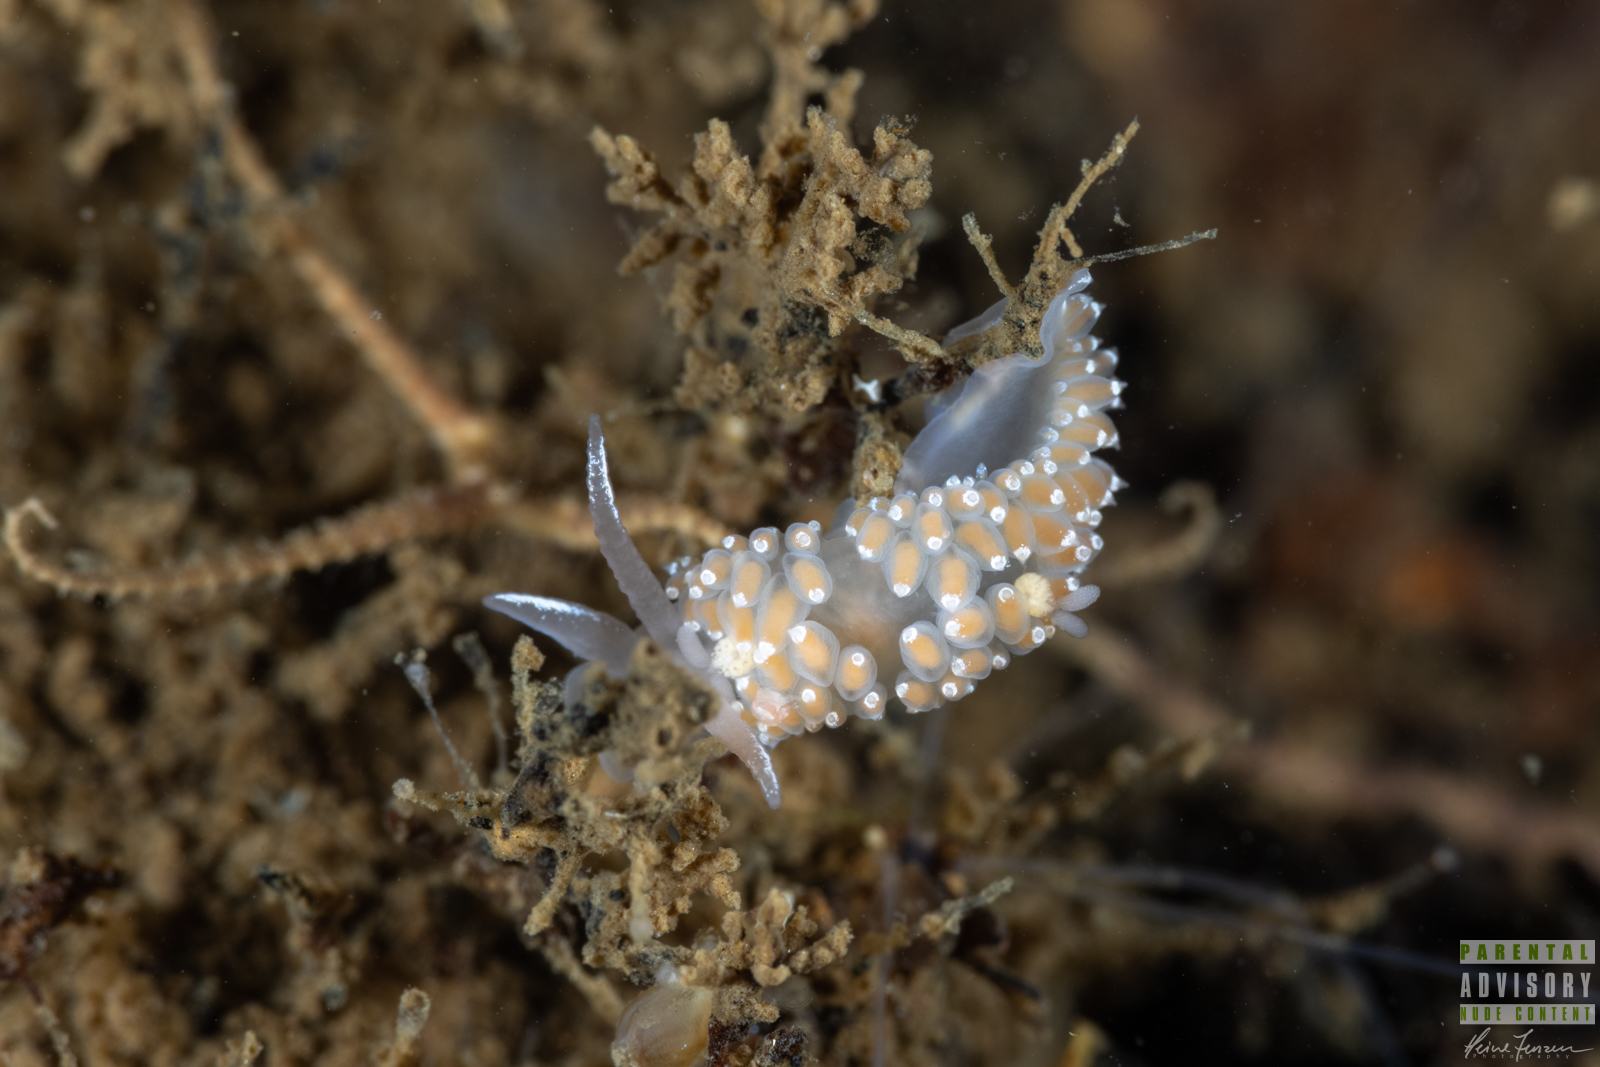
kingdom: Animalia
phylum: Mollusca
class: Gastropoda
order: Nudibranchia
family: Coryphellidae
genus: Coryphella
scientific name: Coryphella verrucosa
